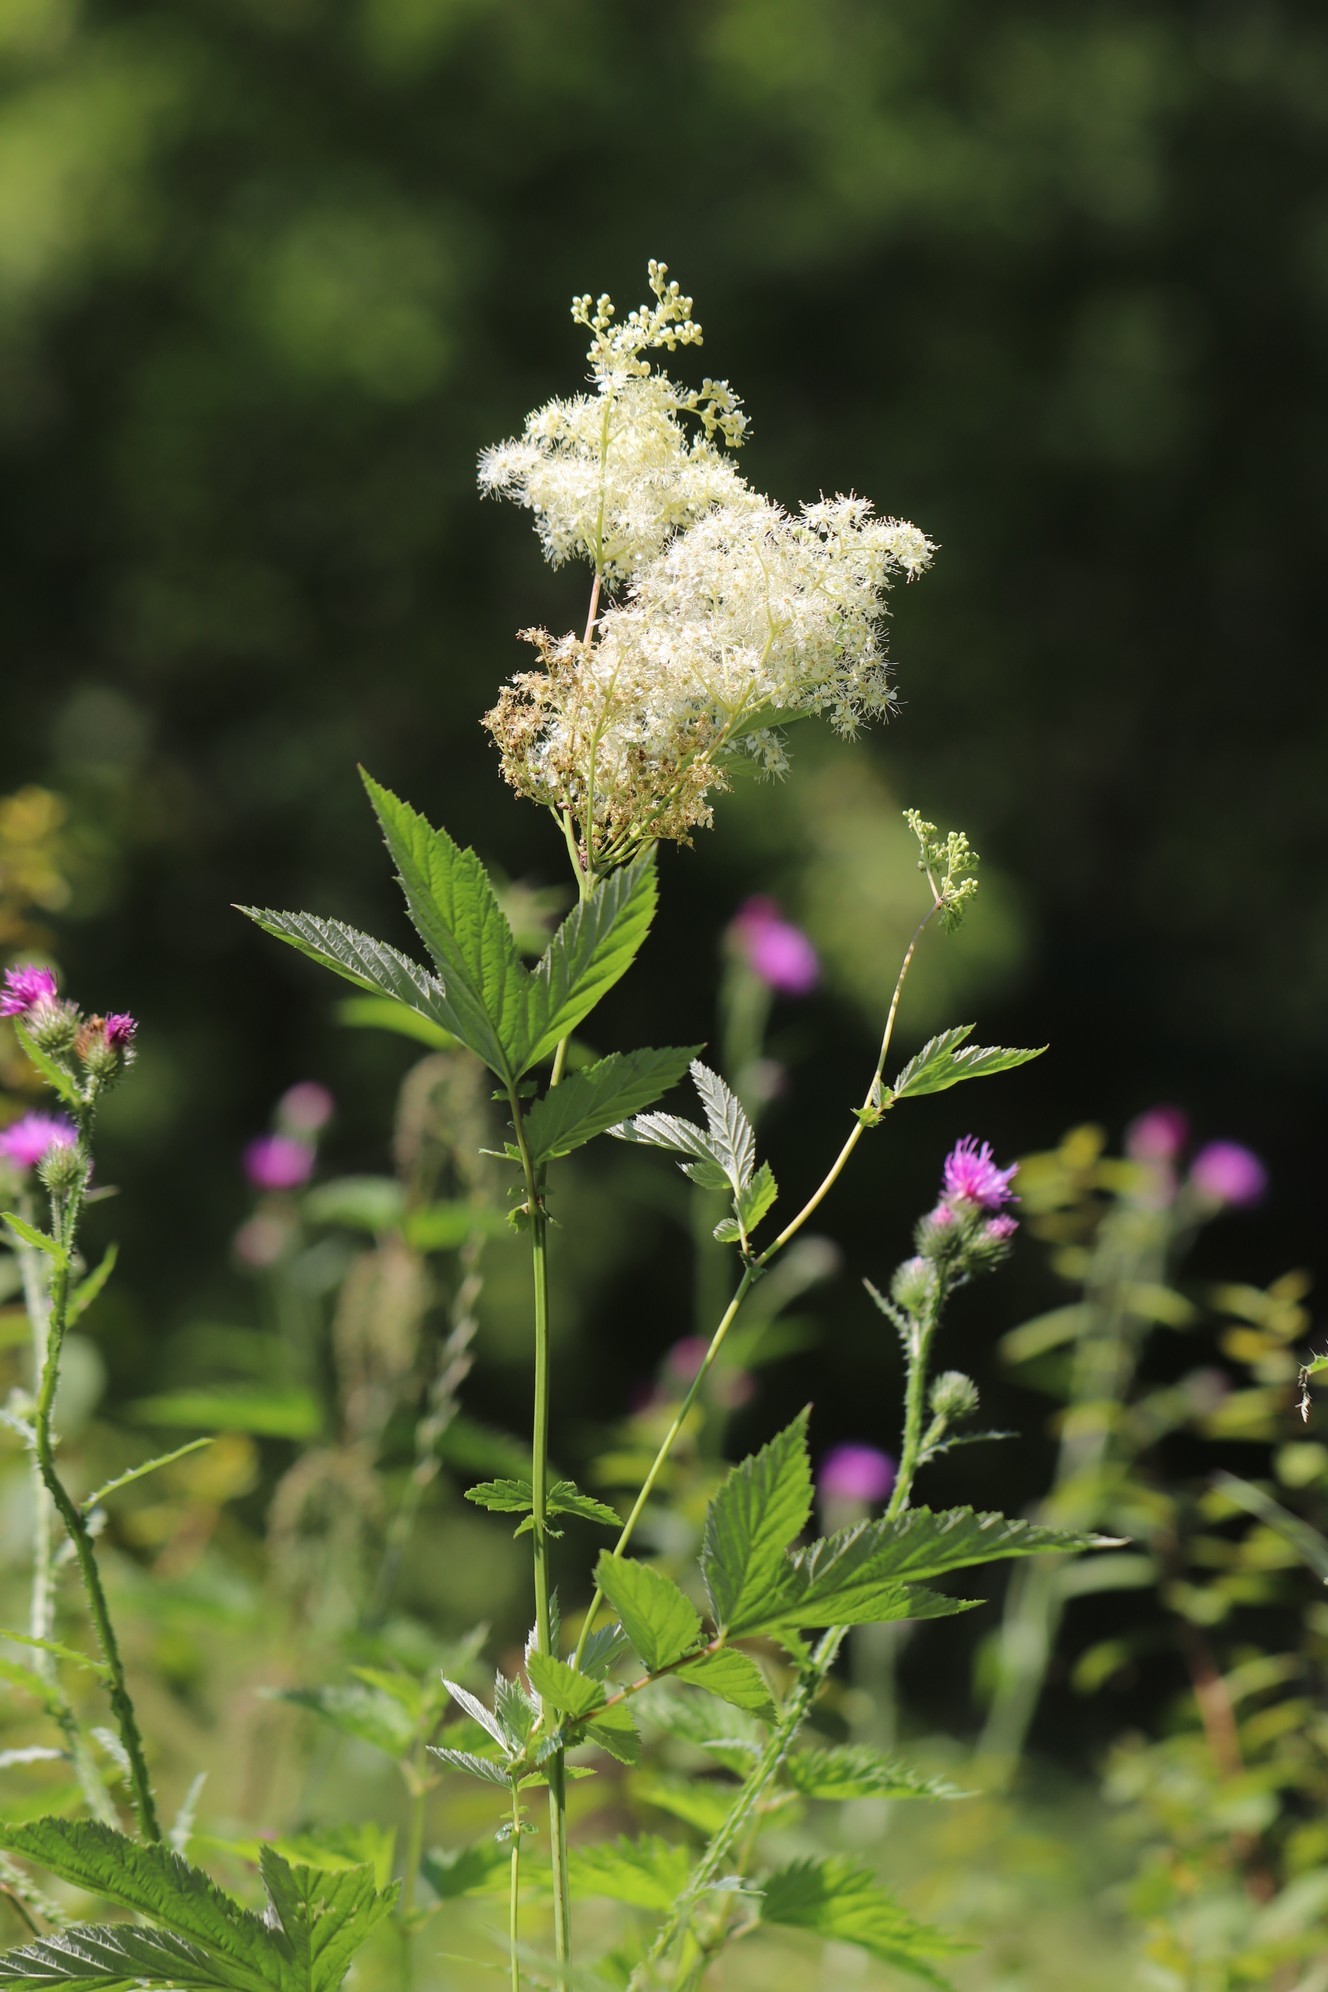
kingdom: Plantae
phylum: Tracheophyta
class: Magnoliopsida
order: Rosales
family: Rosaceae
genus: Filipendula
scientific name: Filipendula ulmaria
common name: Meadowsweet
